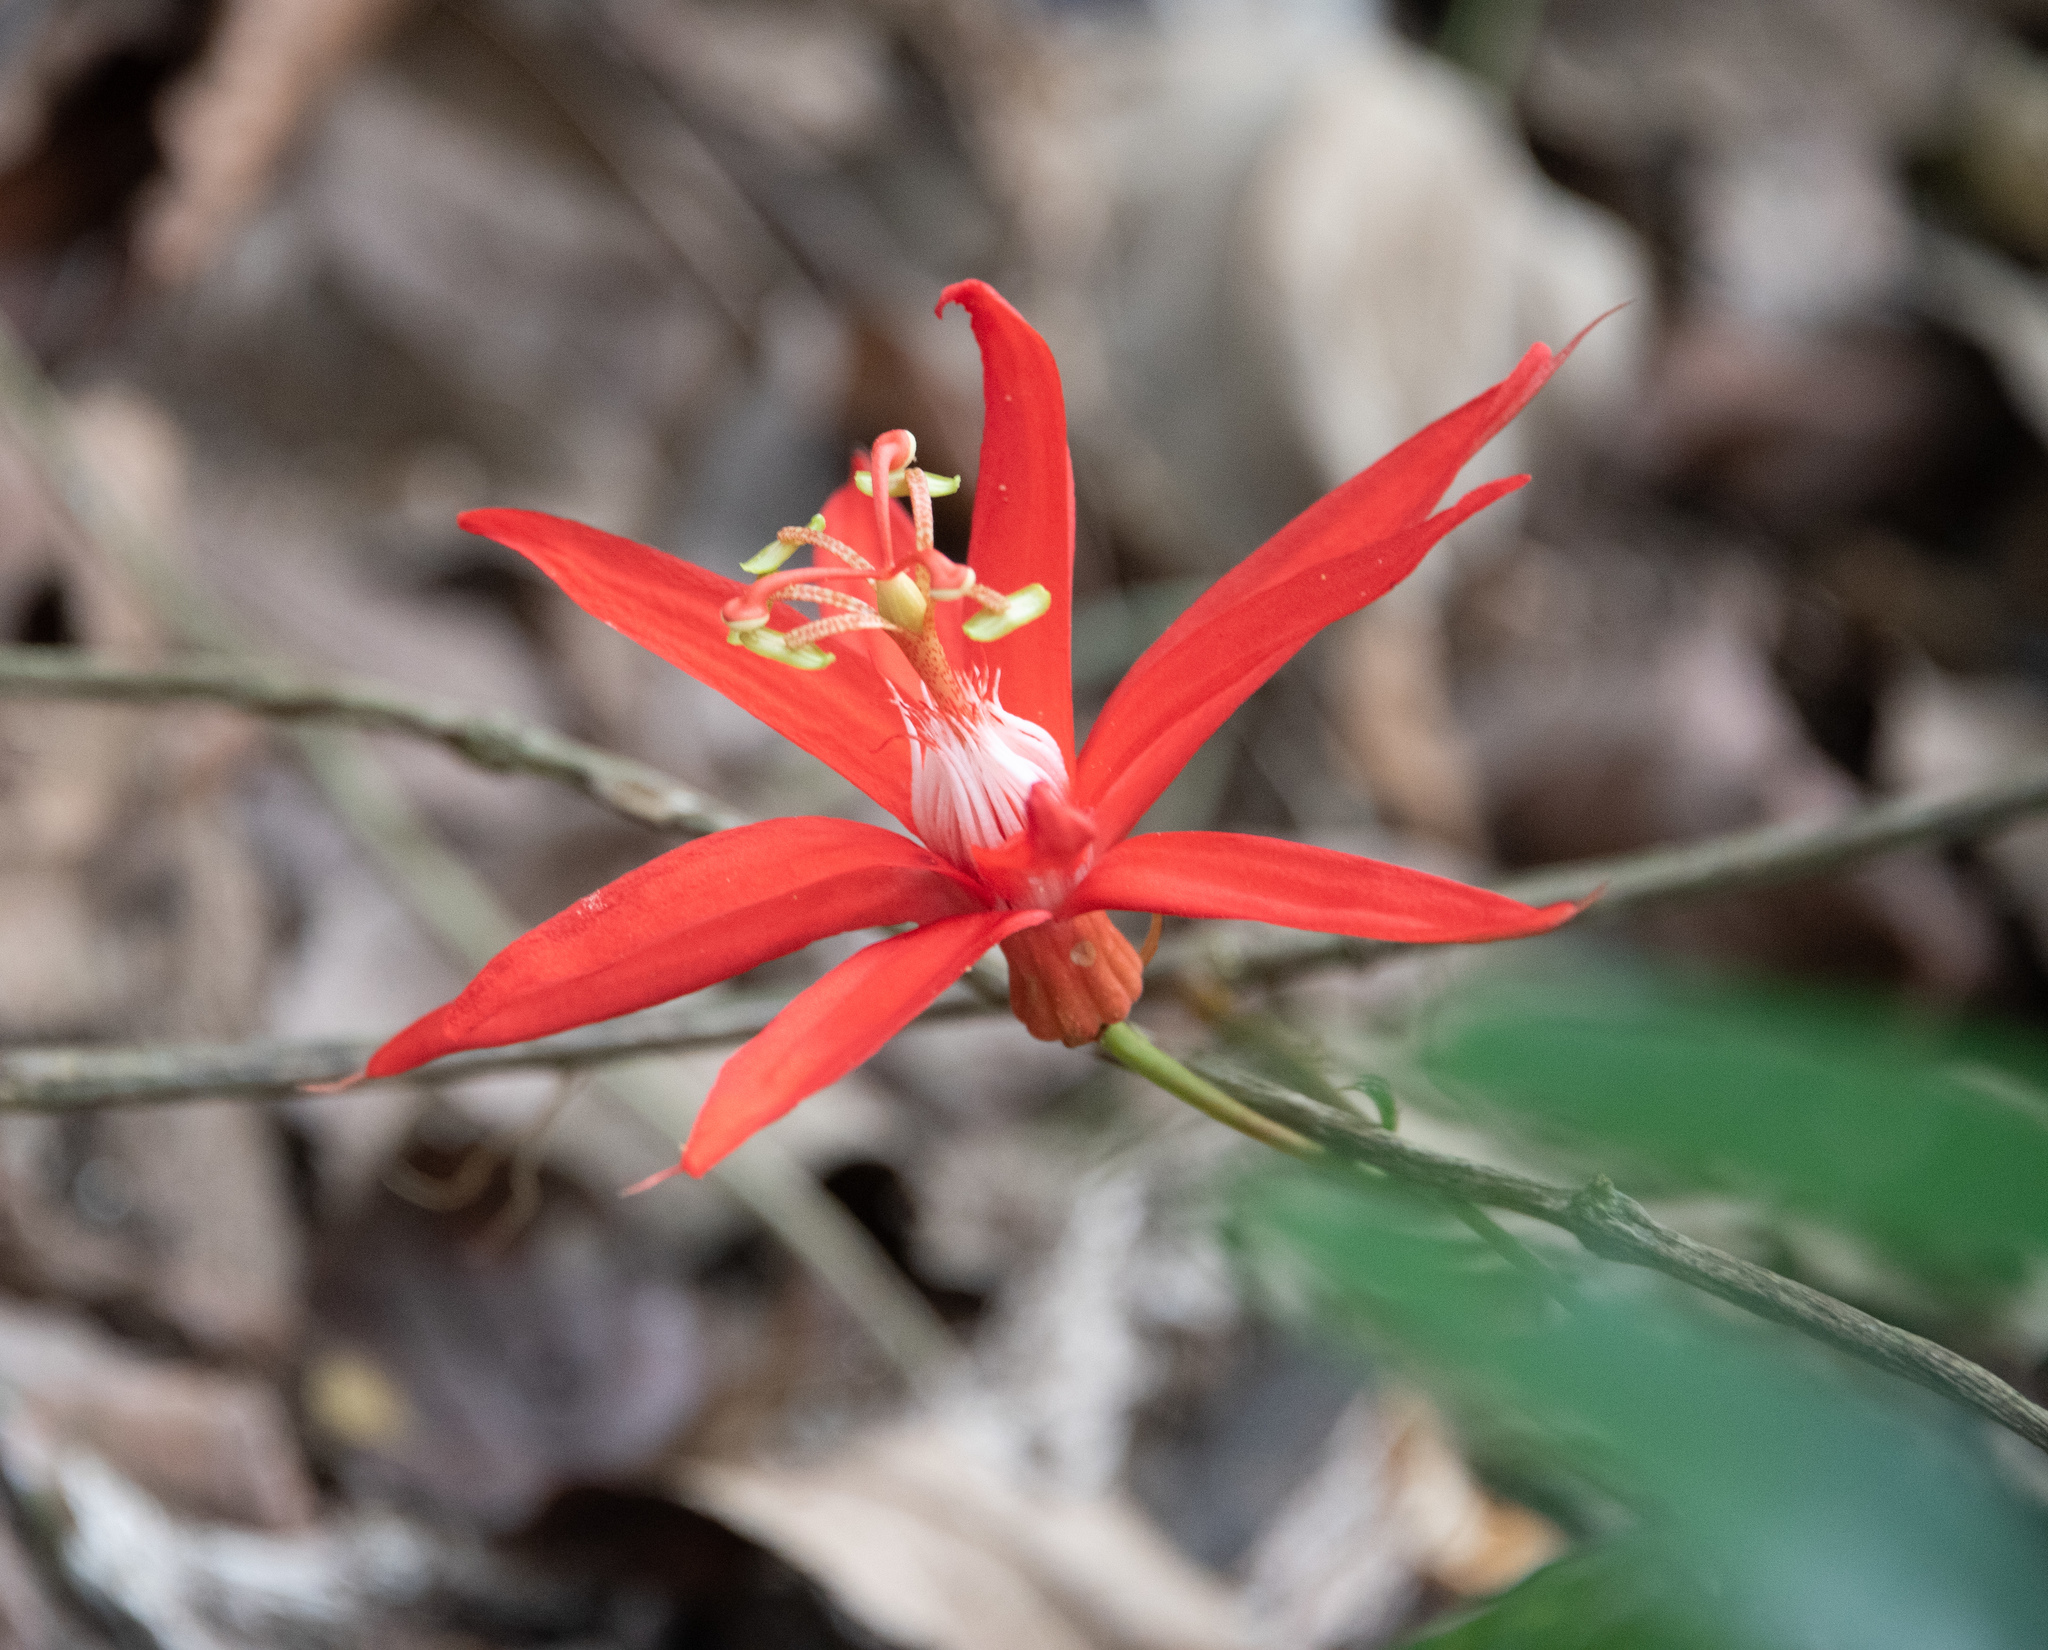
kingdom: Plantae
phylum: Tracheophyta
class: Magnoliopsida
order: Malpighiales
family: Passifloraceae
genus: Passiflora
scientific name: Passiflora vitifolia
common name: Perfumed passionflower
